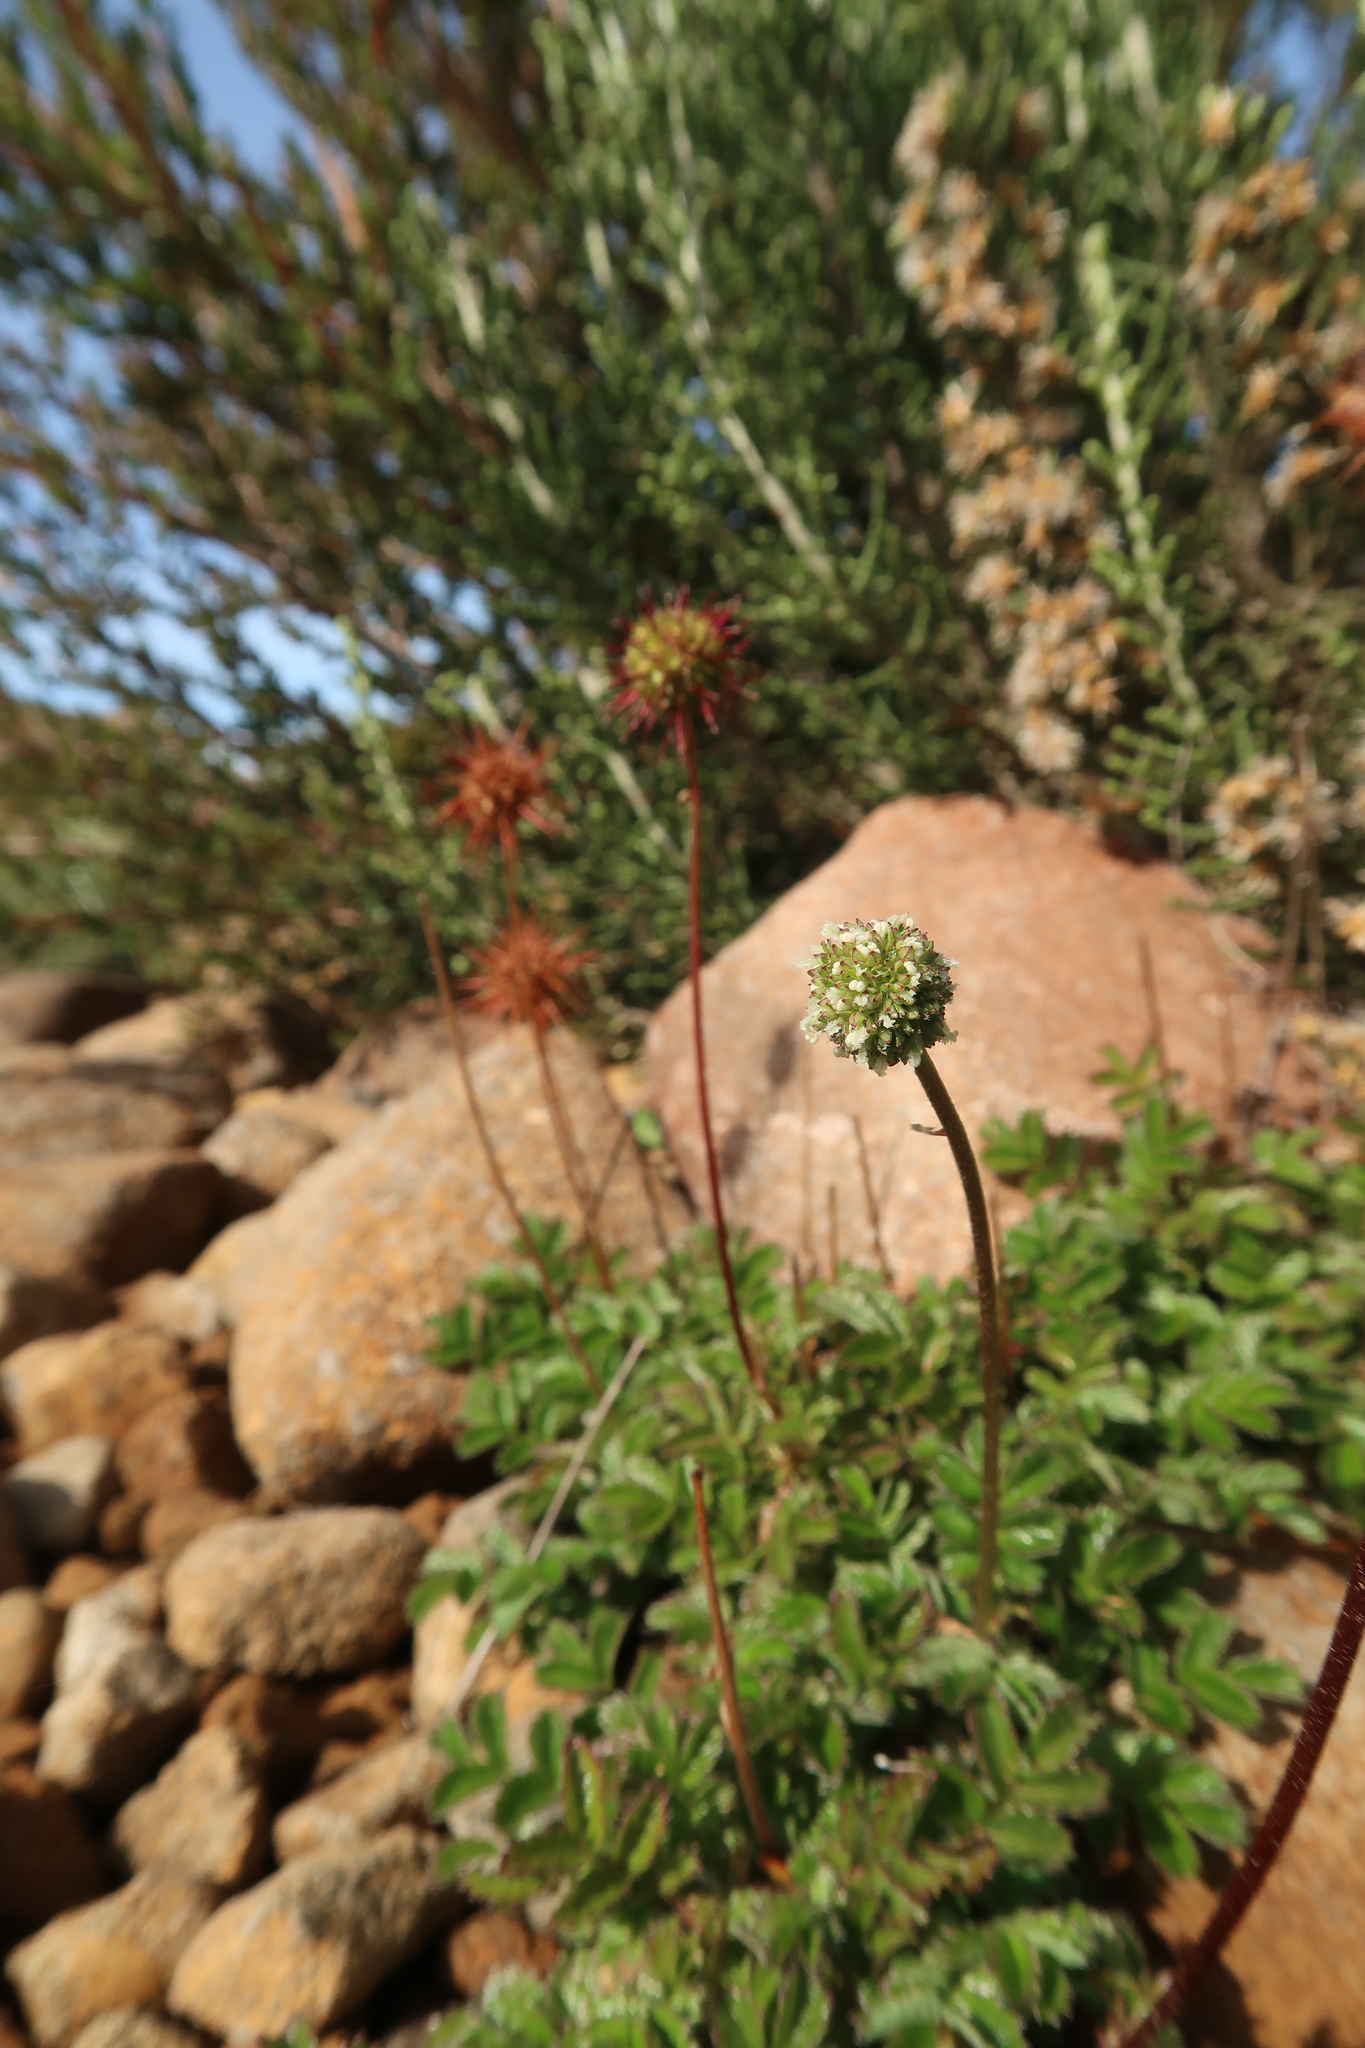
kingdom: Plantae
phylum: Tracheophyta
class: Magnoliopsida
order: Rosales
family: Rosaceae
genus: Acaena
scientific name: Acaena novae-zelandiae
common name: Pirri-pirri-bur
